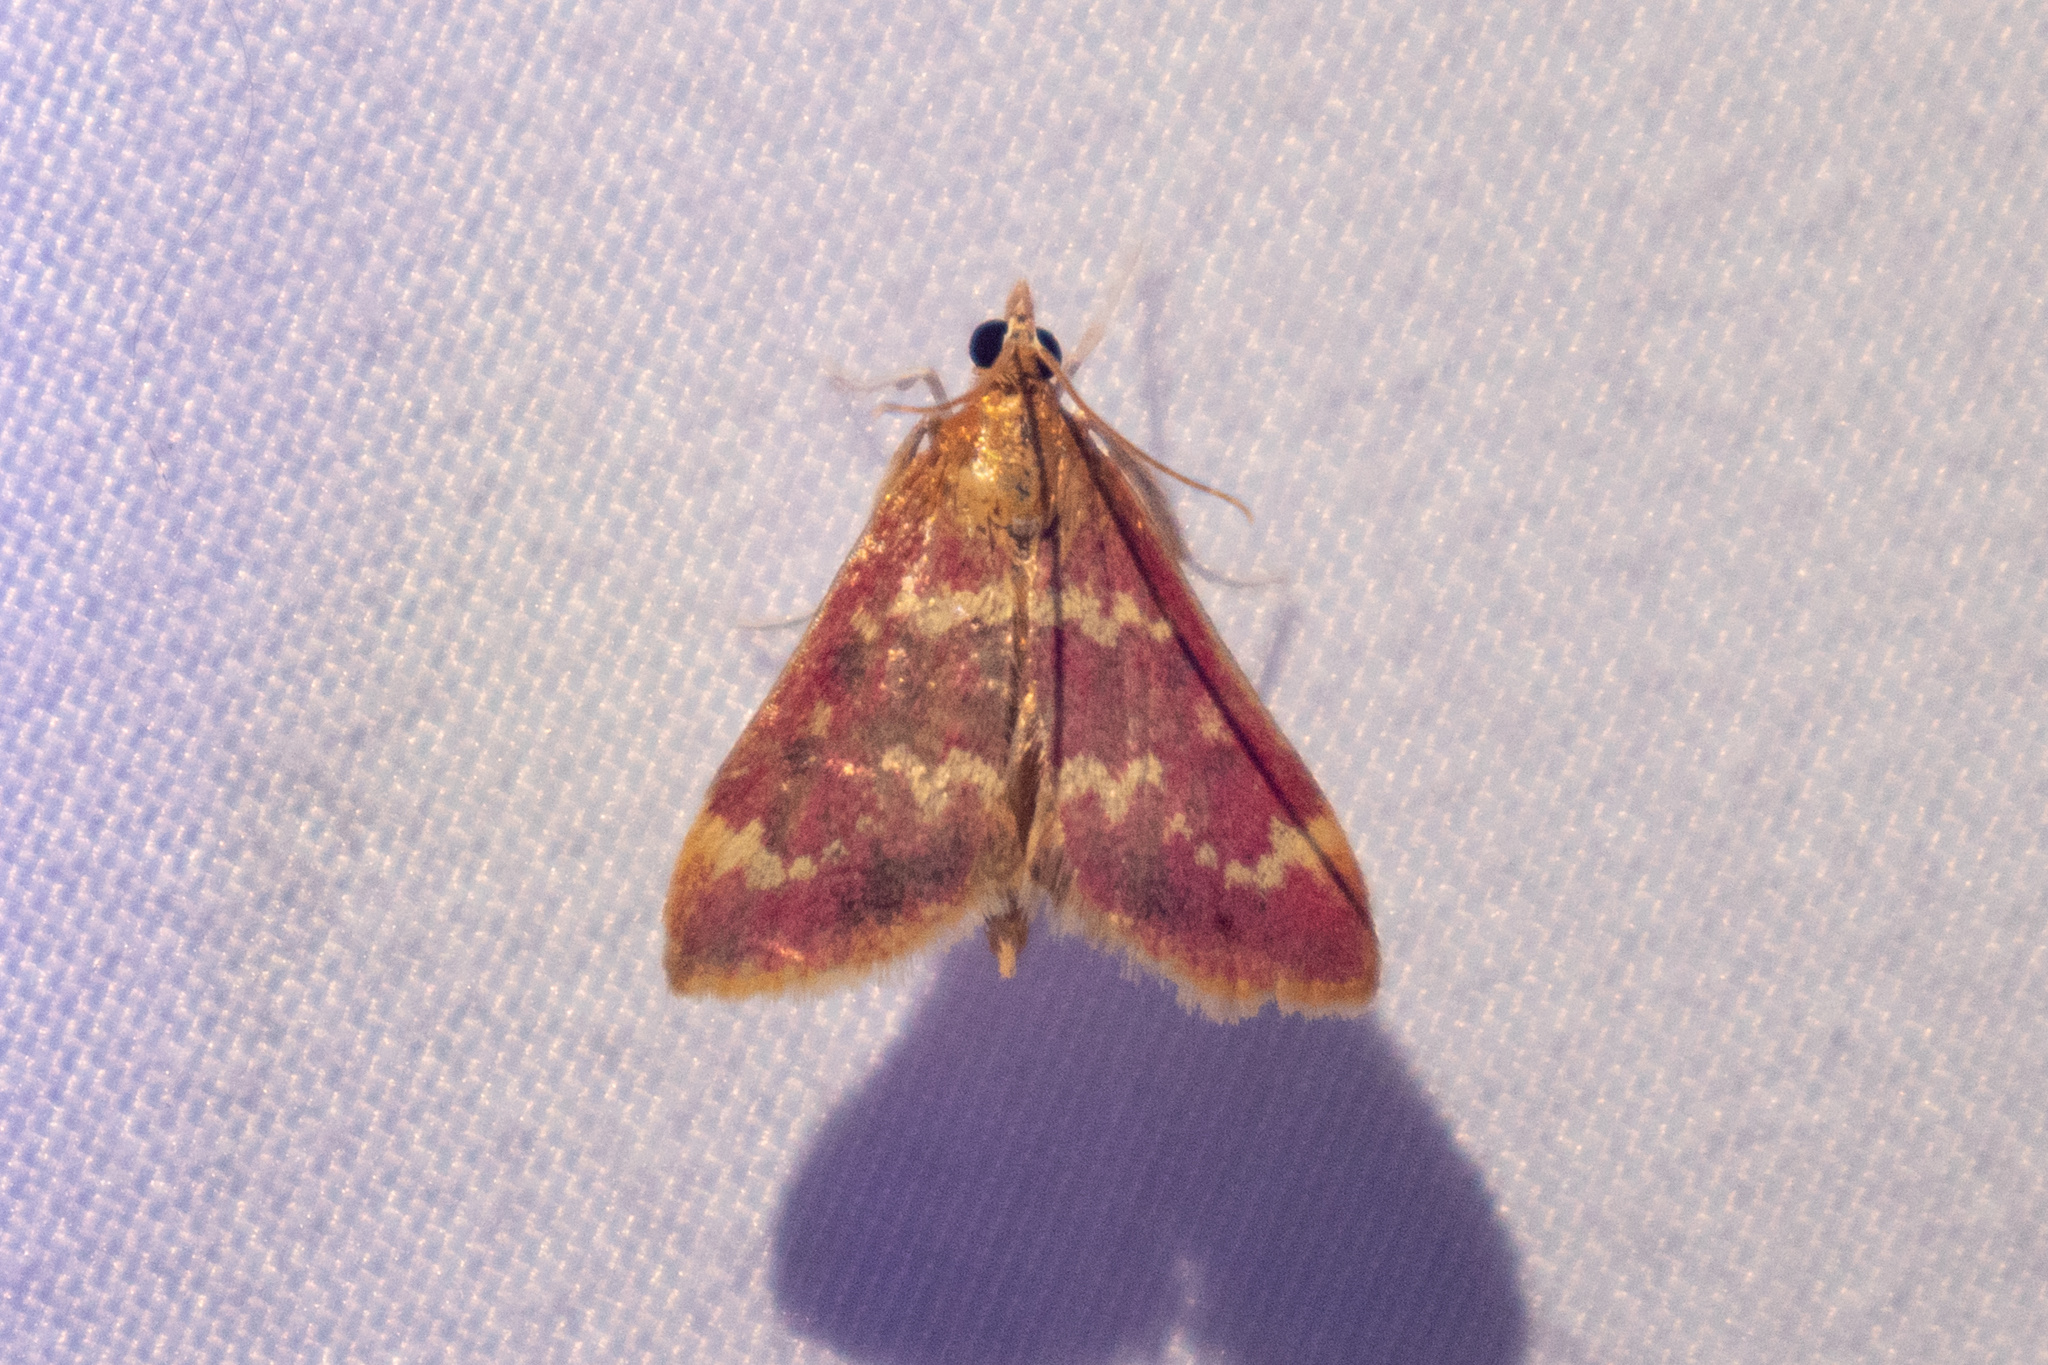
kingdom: Animalia
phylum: Arthropoda
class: Insecta
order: Lepidoptera
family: Crambidae
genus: Pyrausta
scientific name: Pyrausta signatalis
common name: Raspberry pyrausta moth
